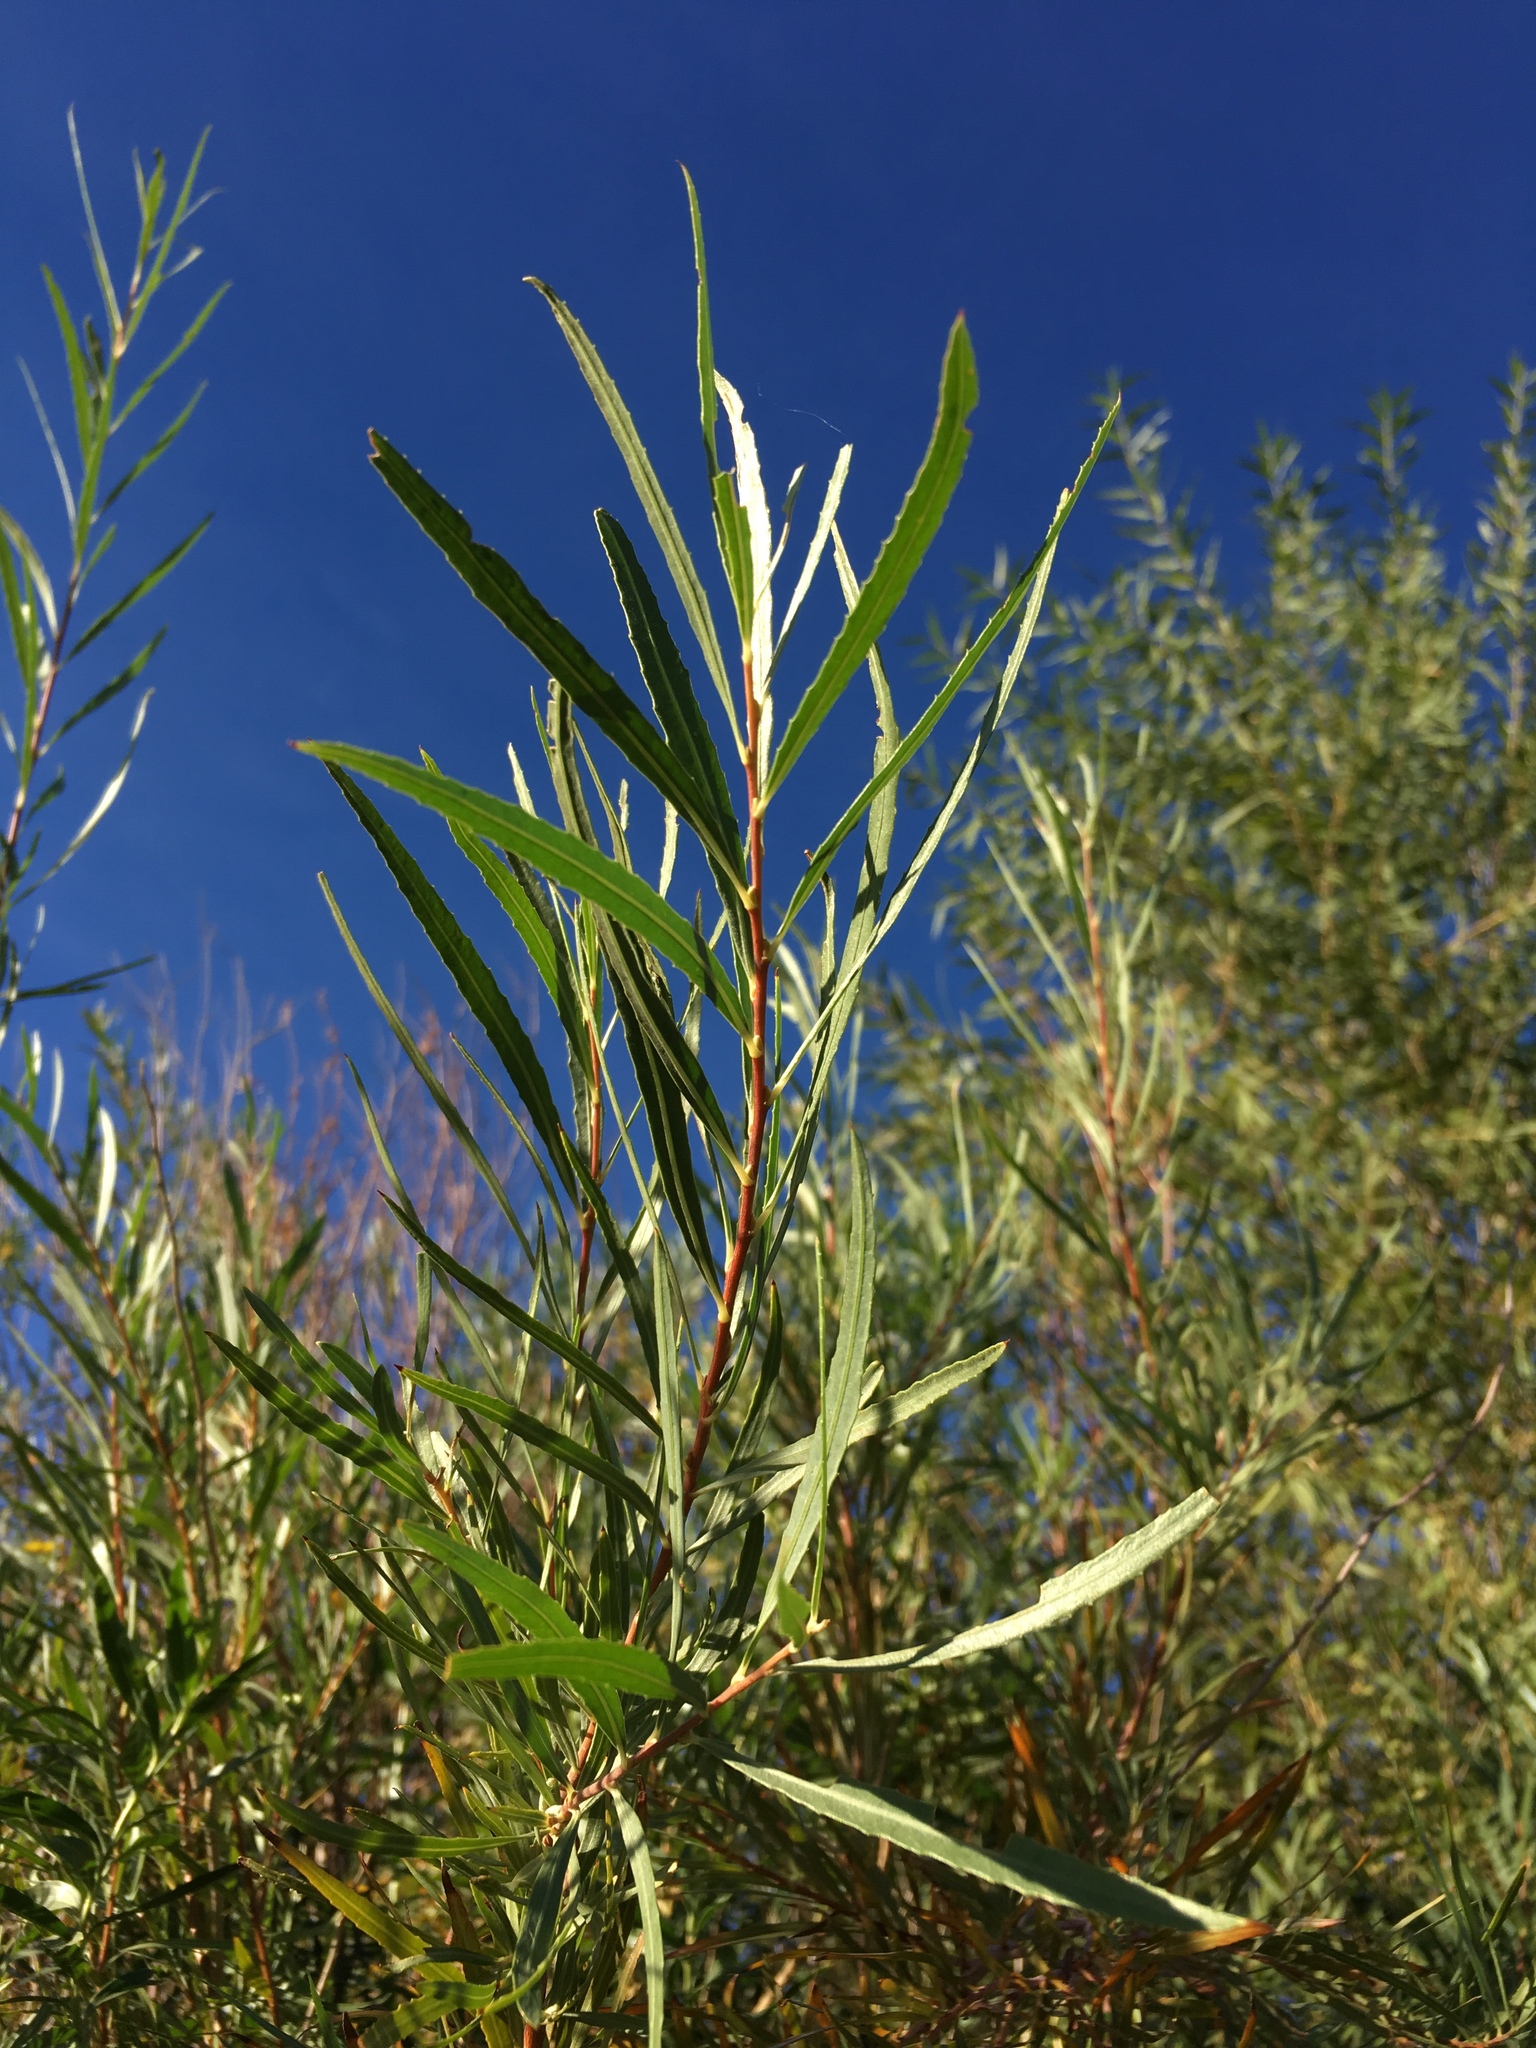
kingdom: Plantae
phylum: Tracheophyta
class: Magnoliopsida
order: Malpighiales
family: Salicaceae
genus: Salix
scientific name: Salix exigua
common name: Coyote willow
